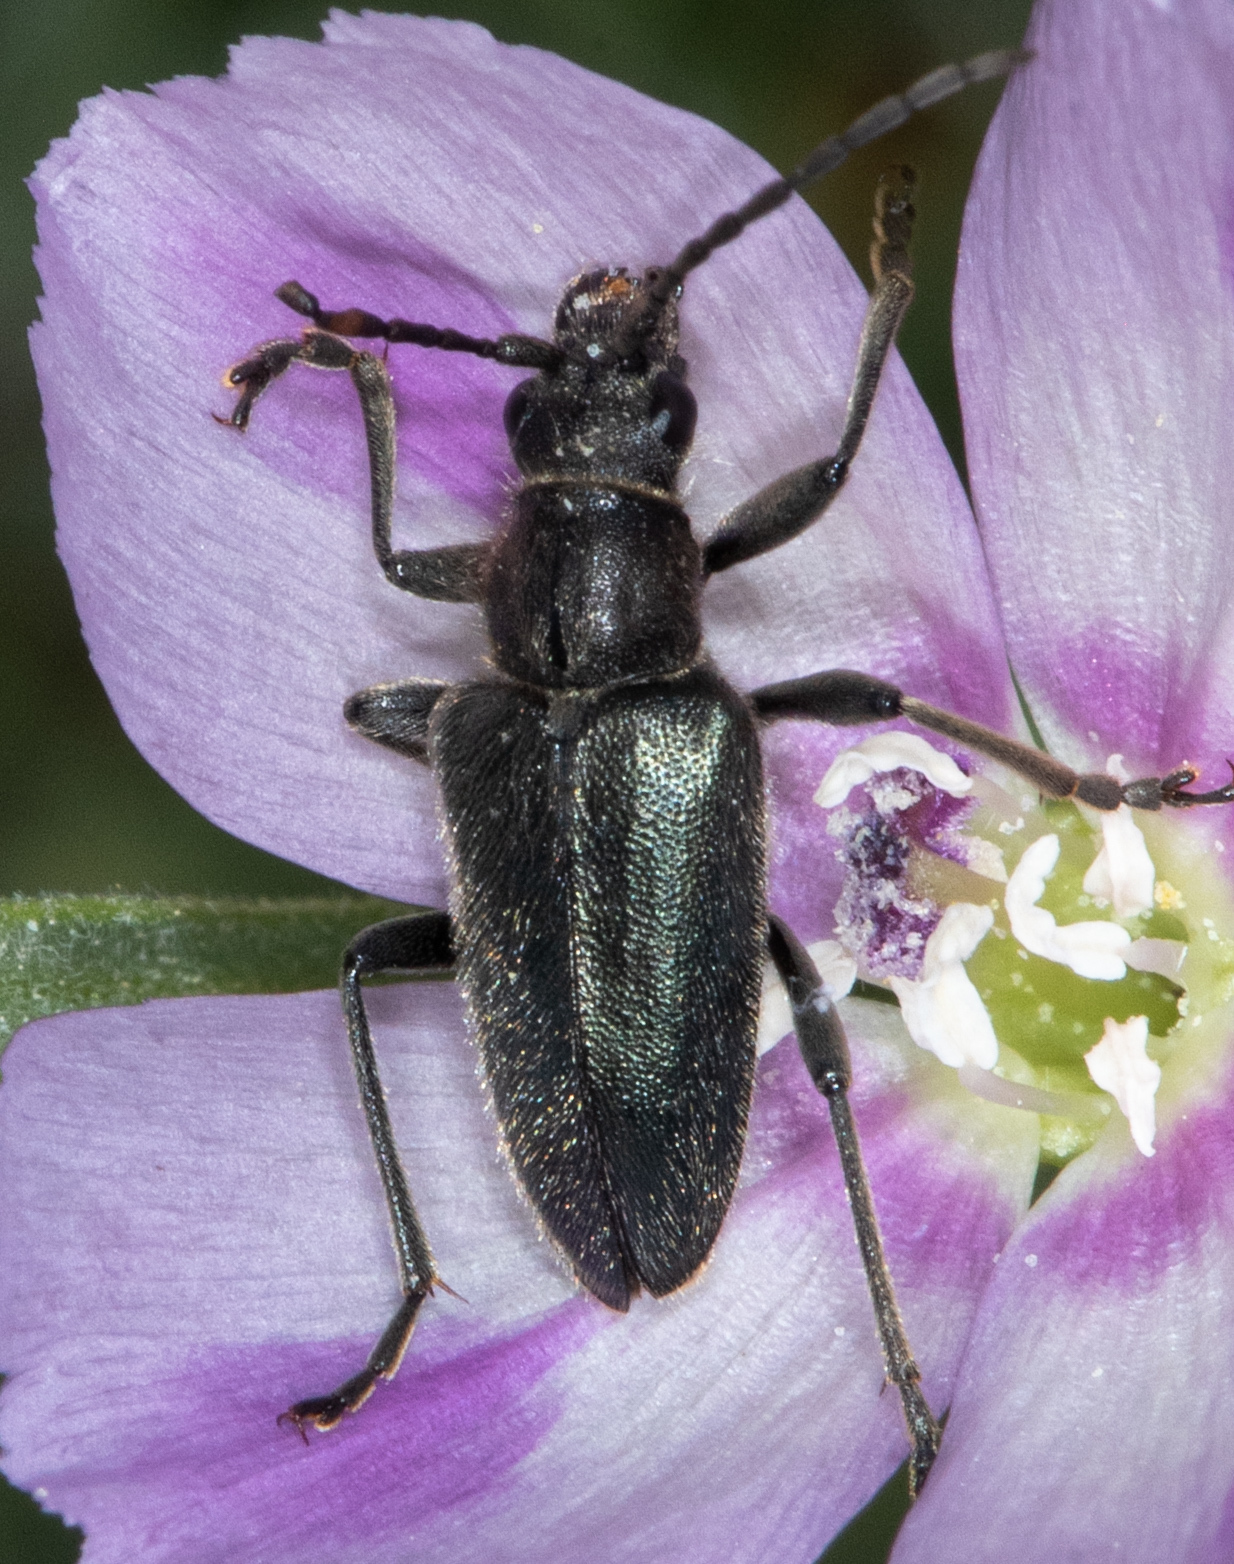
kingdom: Animalia
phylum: Arthropoda
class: Insecta
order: Coleoptera
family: Cerambycidae
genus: Brachysomida
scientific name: Brachysomida californica
